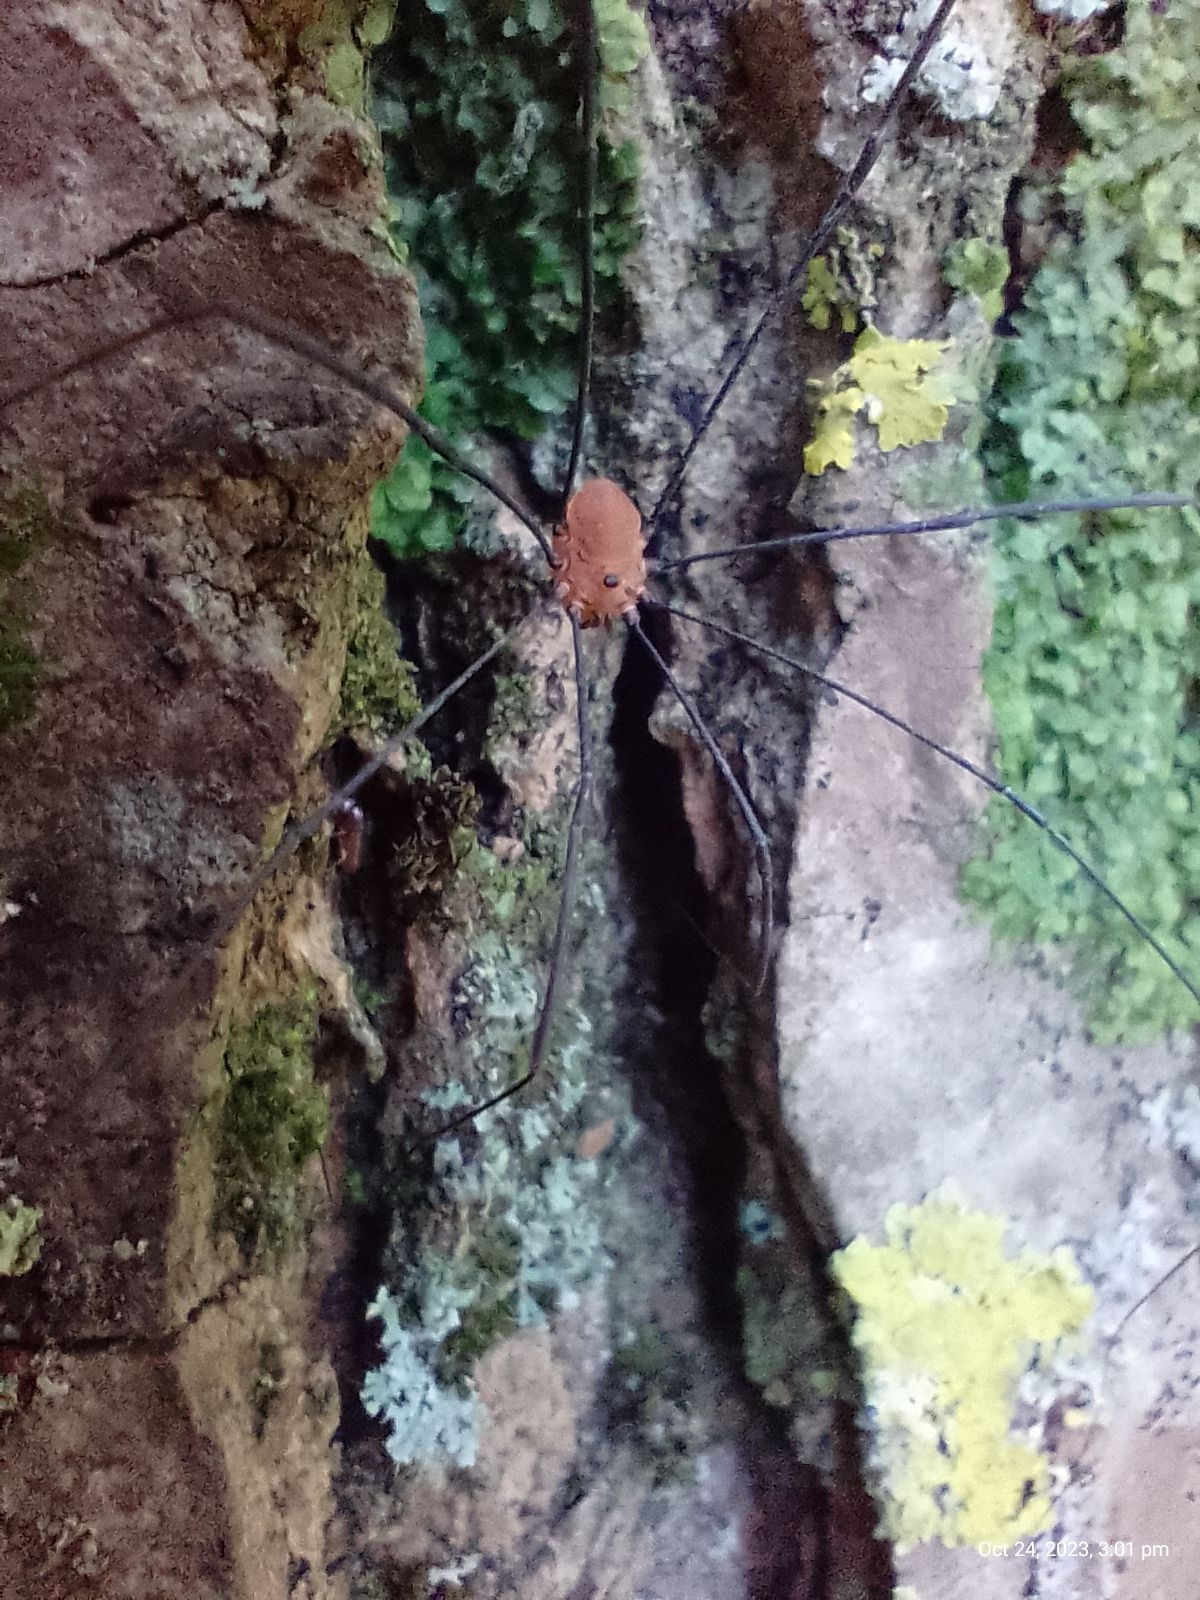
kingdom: Animalia
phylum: Arthropoda
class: Arachnida
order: Opiliones
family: Sclerosomatidae
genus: Leiobunum
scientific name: Leiobunum rotundum
